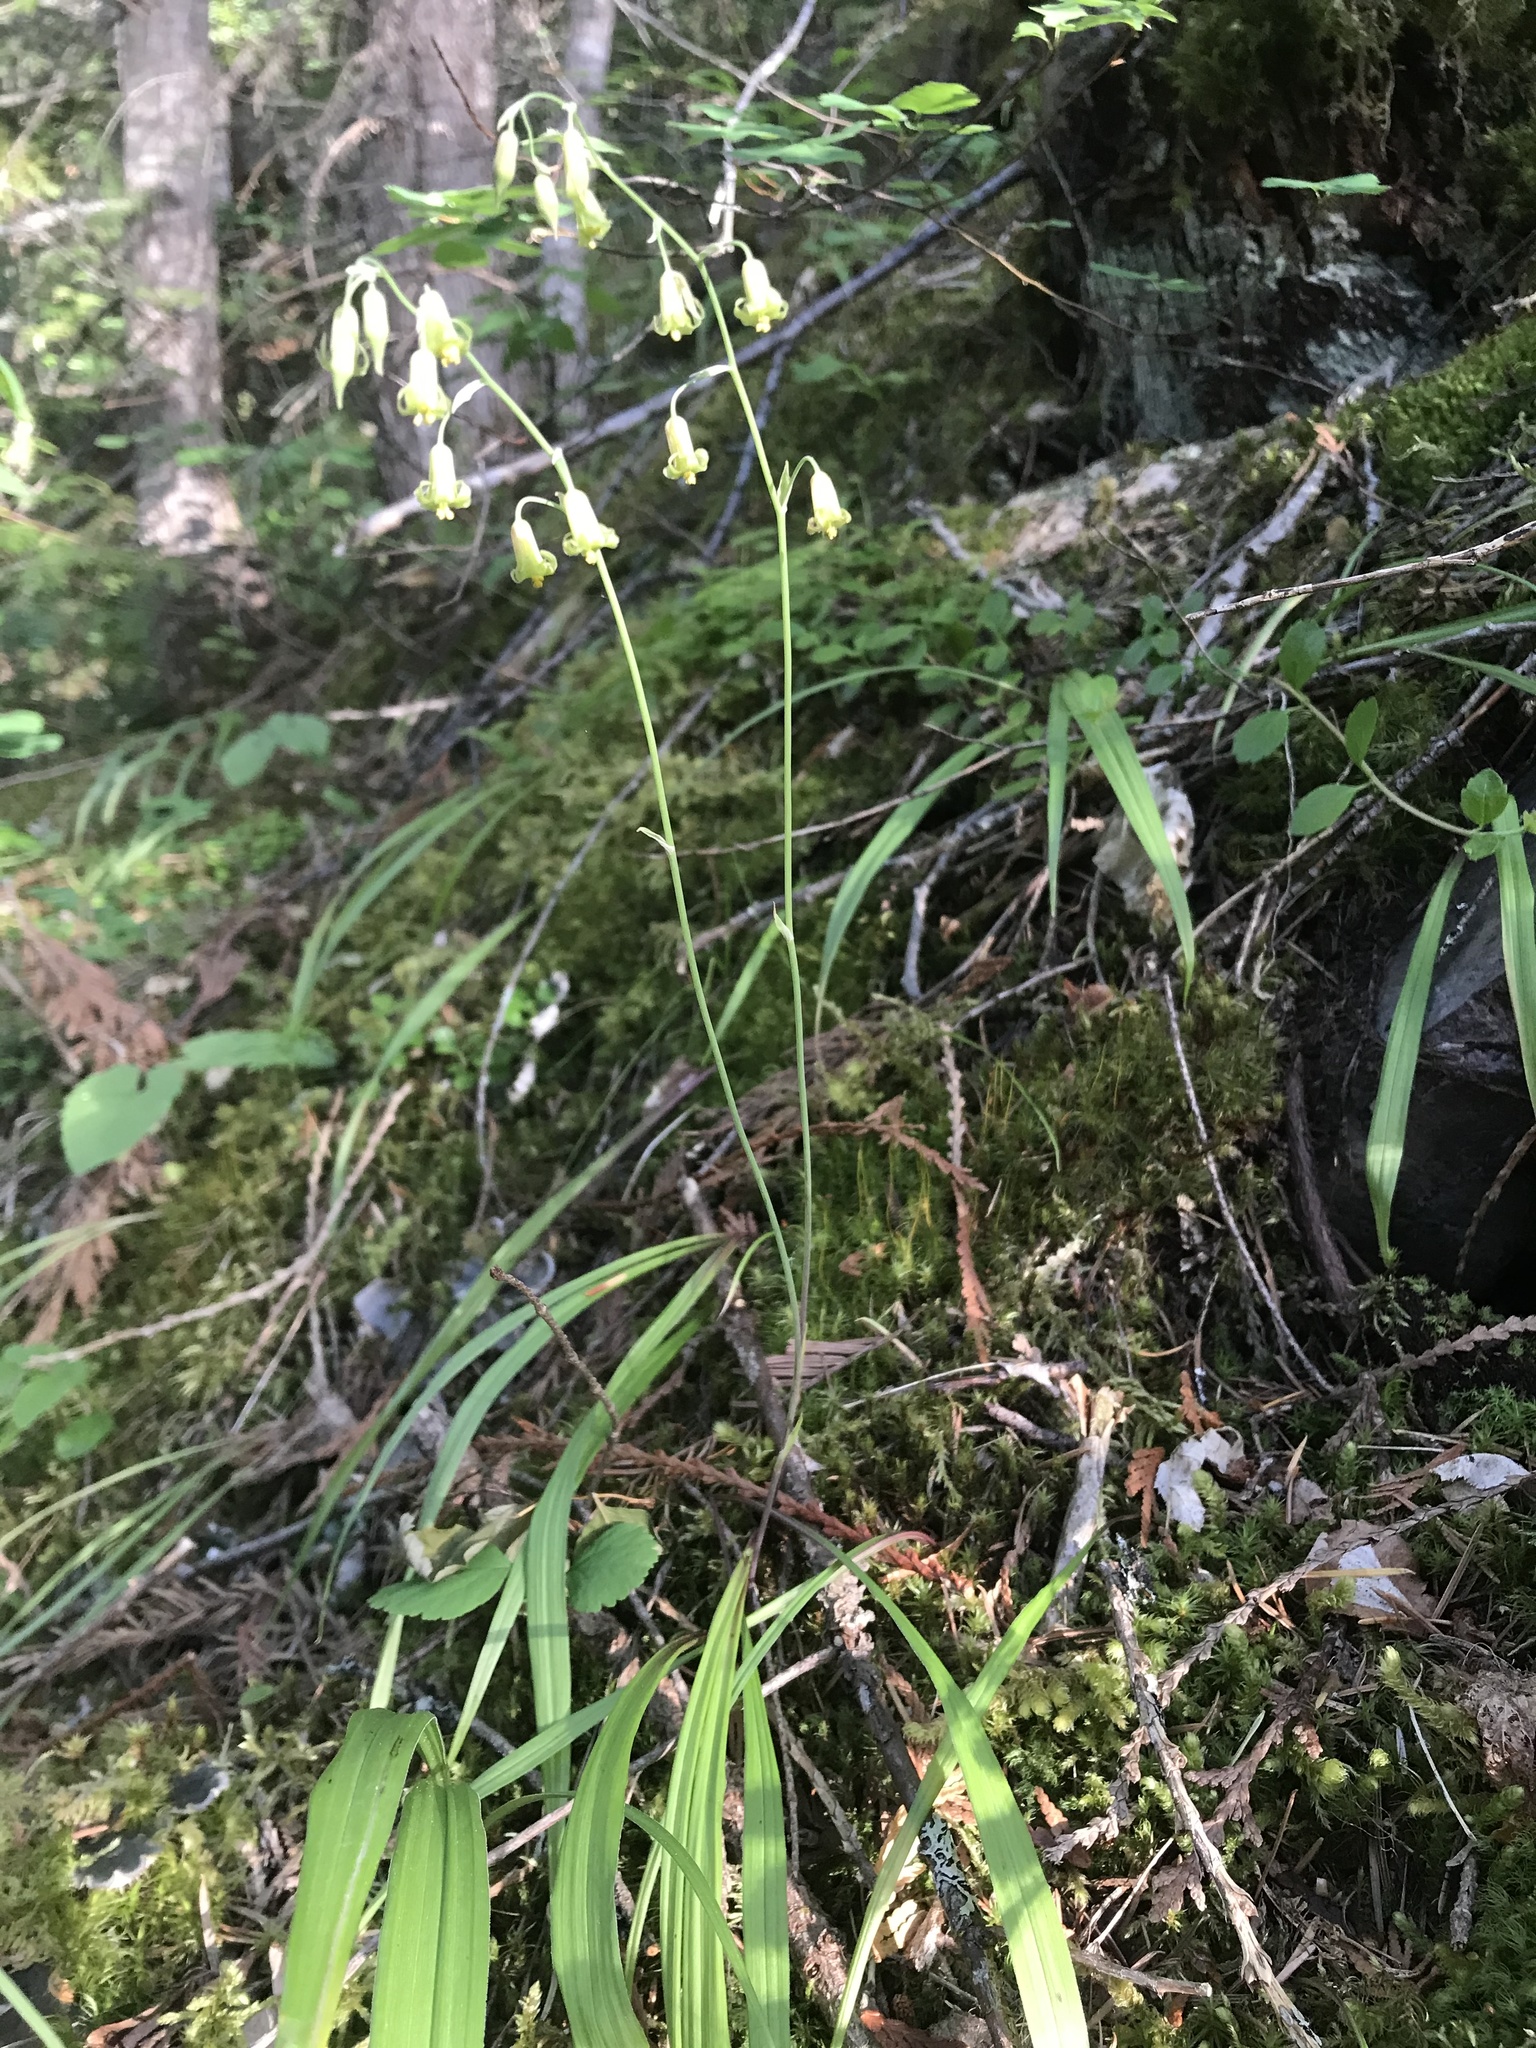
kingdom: Plantae
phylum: Tracheophyta
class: Liliopsida
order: Liliales
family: Melanthiaceae
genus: Anticlea
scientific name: Anticlea occidentalis
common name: Bronze-bells
